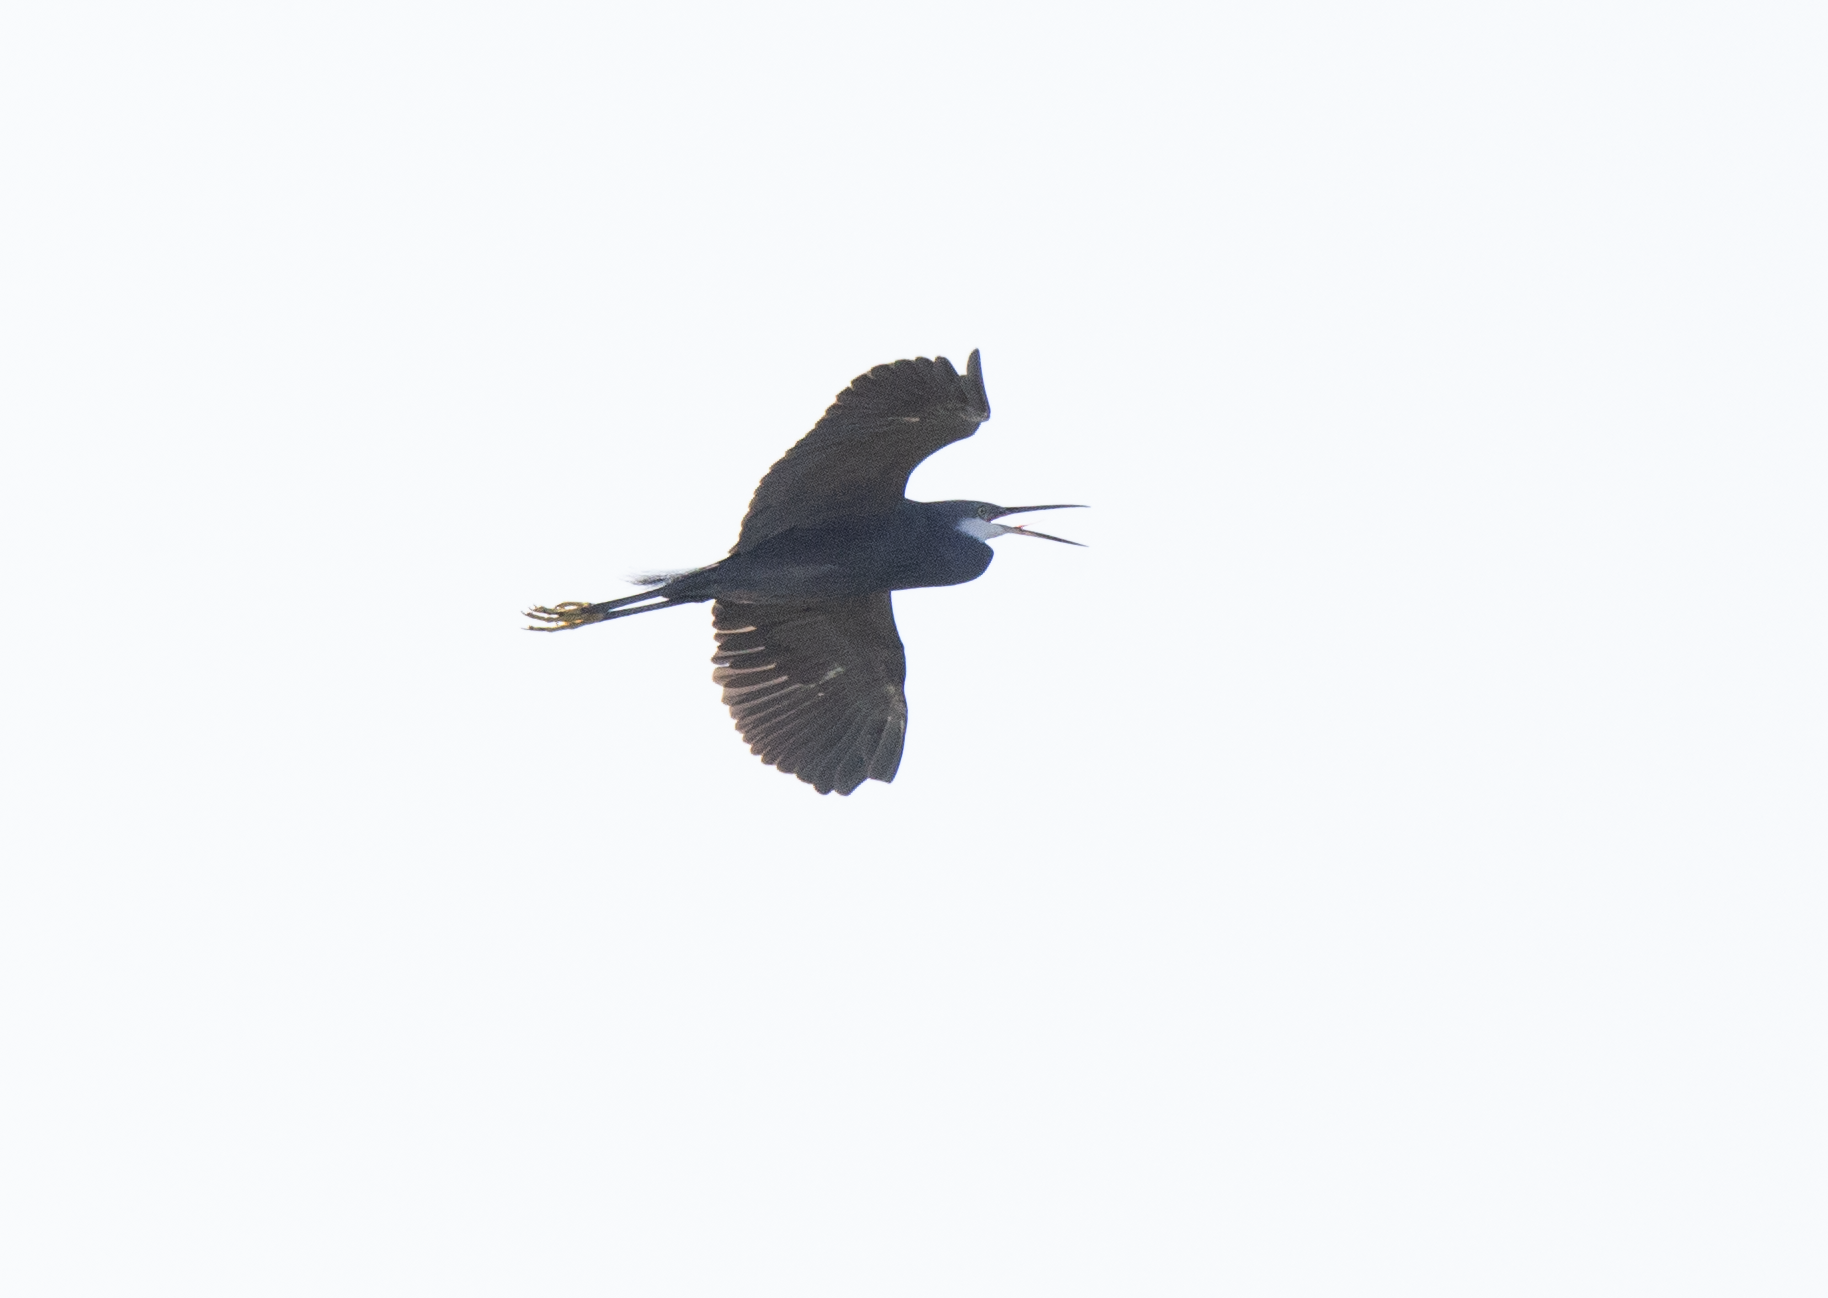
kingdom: Animalia
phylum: Chordata
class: Aves
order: Pelecaniformes
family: Ardeidae
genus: Egretta
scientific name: Egretta gularis
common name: Western reef-heron
